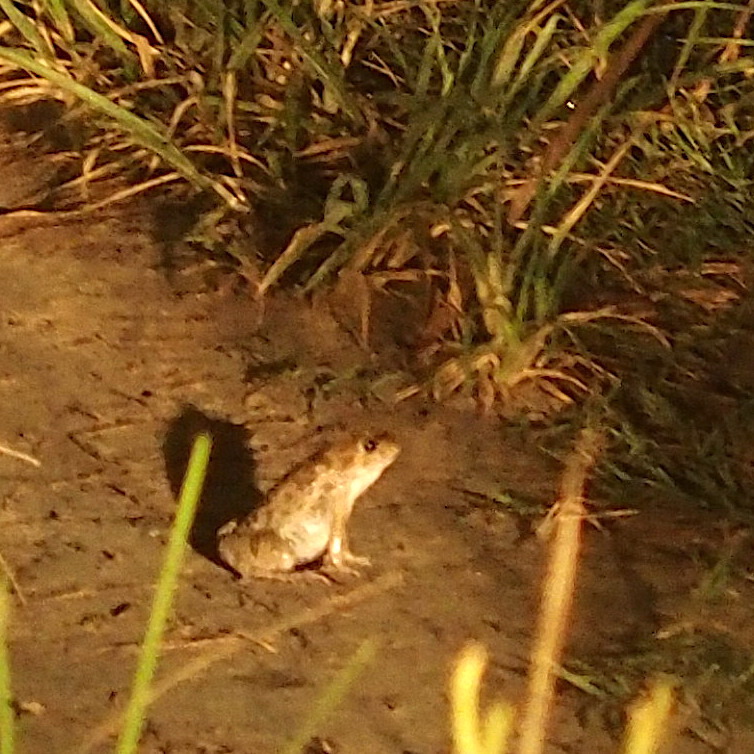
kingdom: Animalia
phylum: Chordata
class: Amphibia
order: Anura
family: Dicroglossidae
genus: Fejervarya
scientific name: Fejervarya limnocharis
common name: Asian grass frog/common pond frog/field frog/grass frog/indian rice frog
